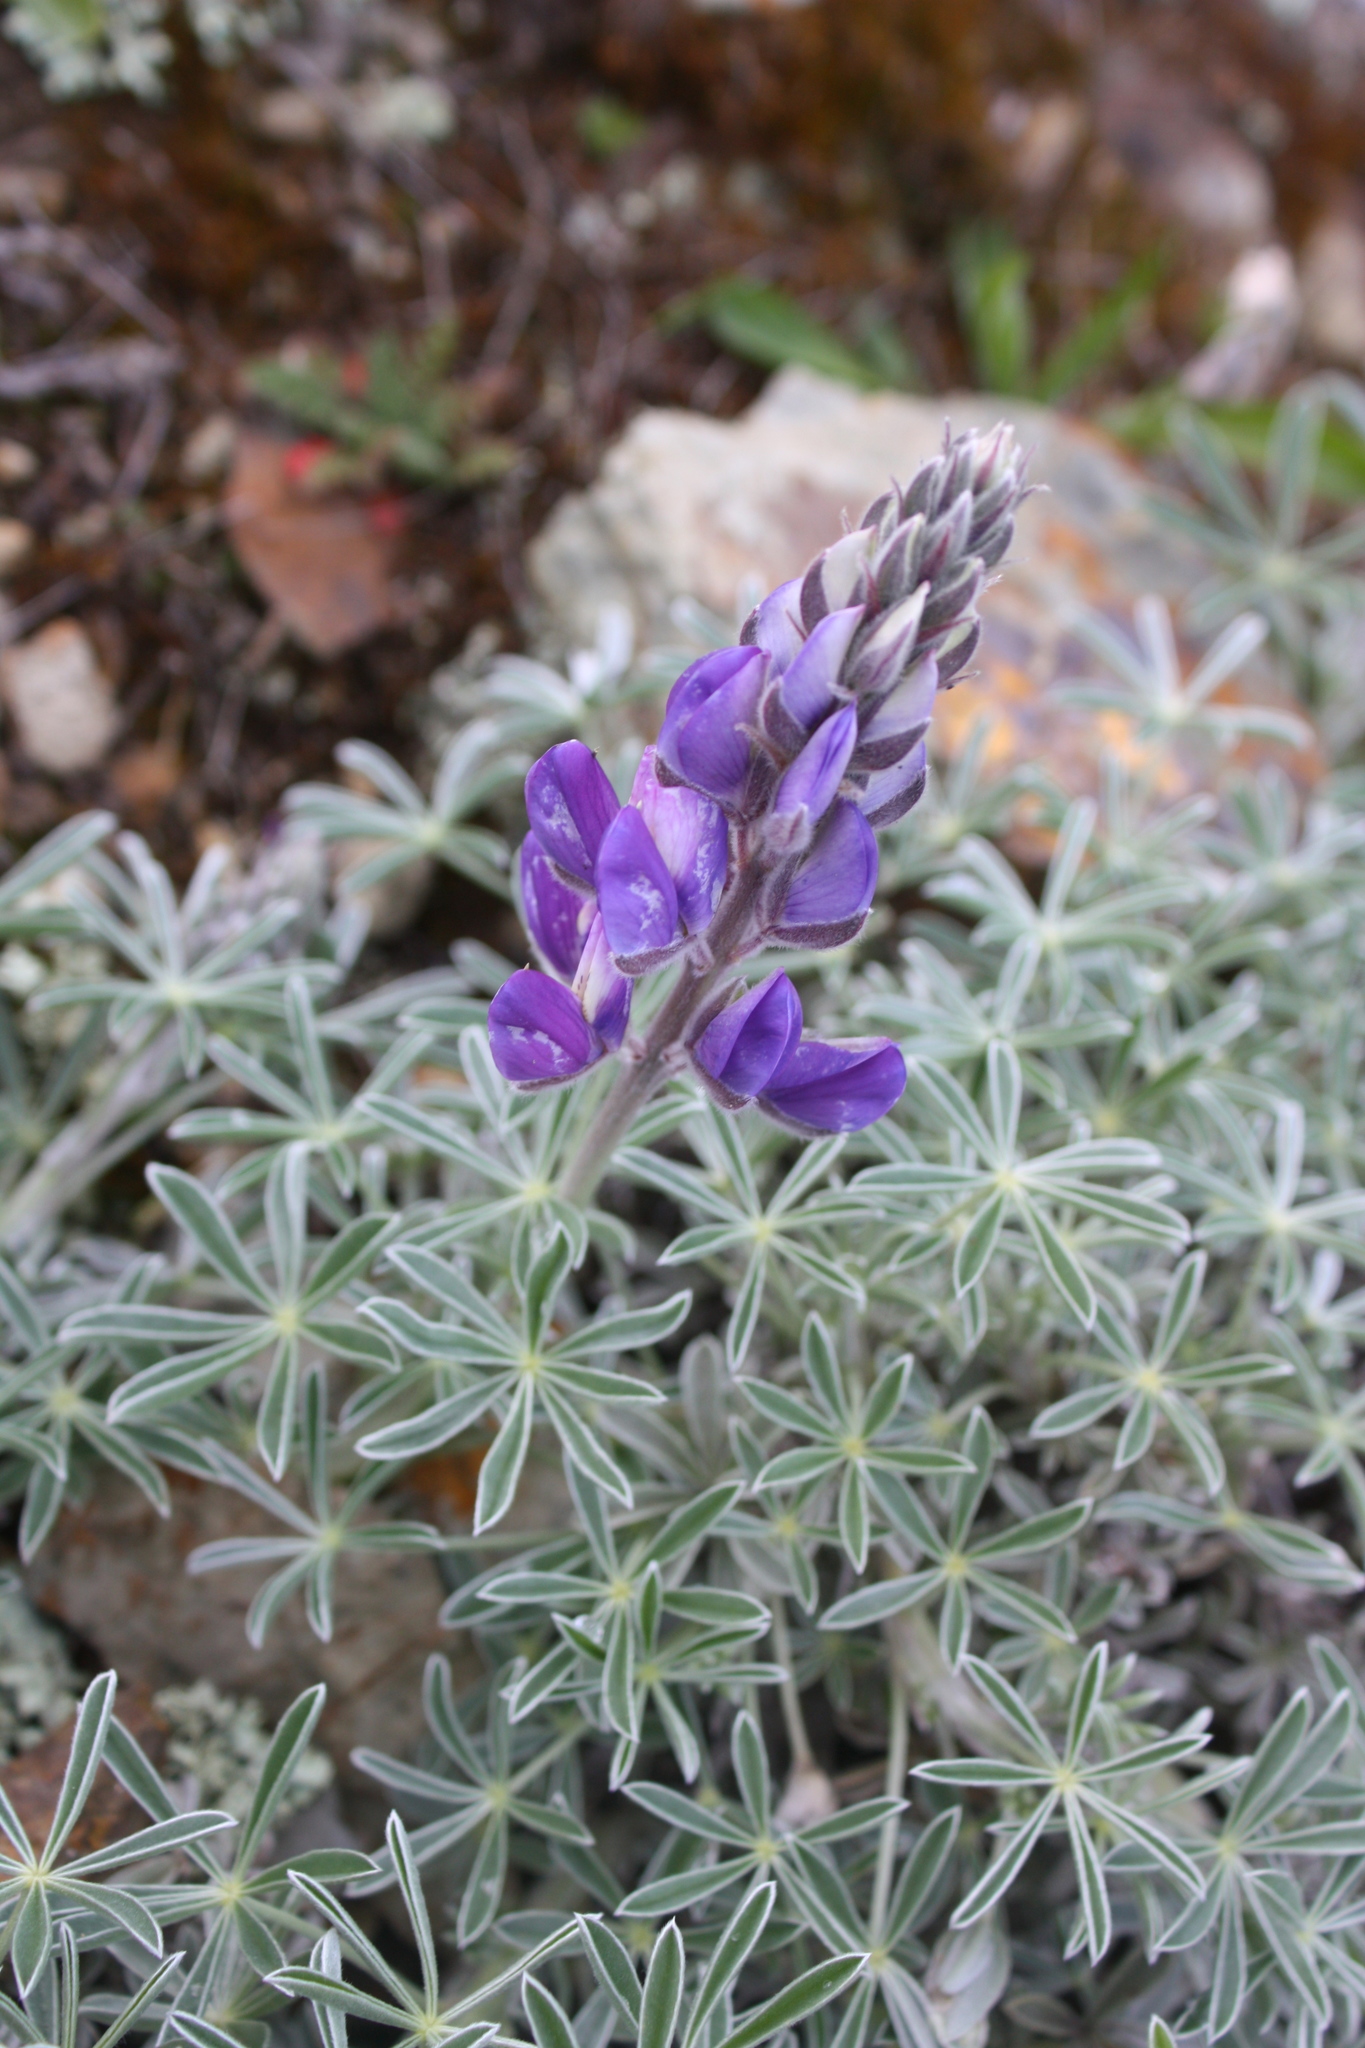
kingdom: Plantae
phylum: Tracheophyta
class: Magnoliopsida
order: Fabales
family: Fabaceae
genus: Lupinus
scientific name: Lupinus albifrons
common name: Foothill lupine
